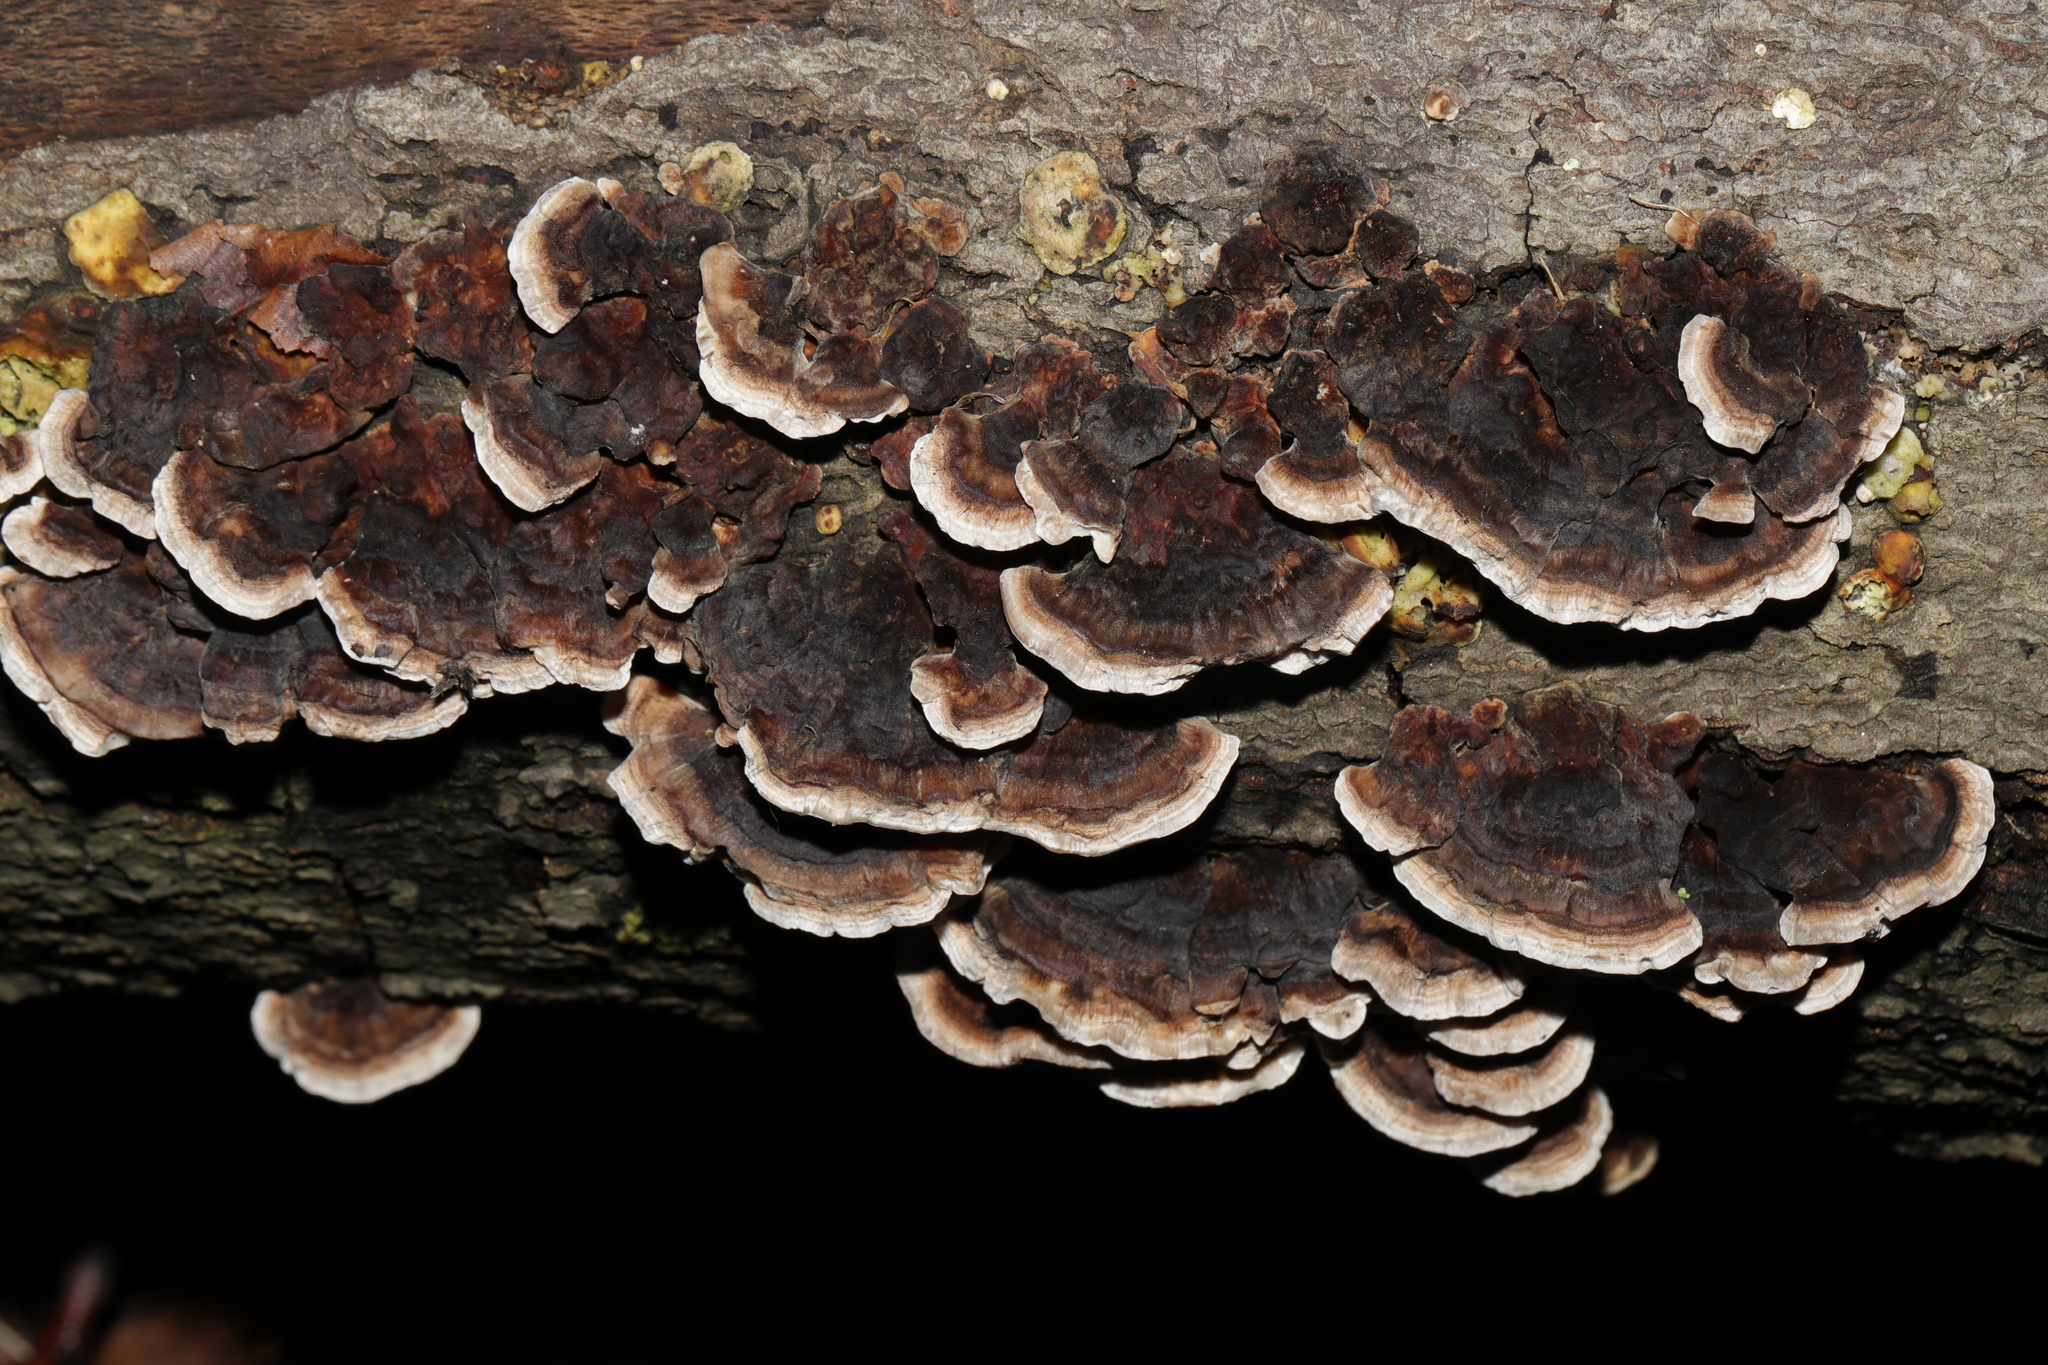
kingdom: Fungi
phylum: Basidiomycota
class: Agaricomycetes
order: Polyporales
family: Polyporaceae
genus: Trametes
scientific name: Trametes versicolor
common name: Turkeytail
